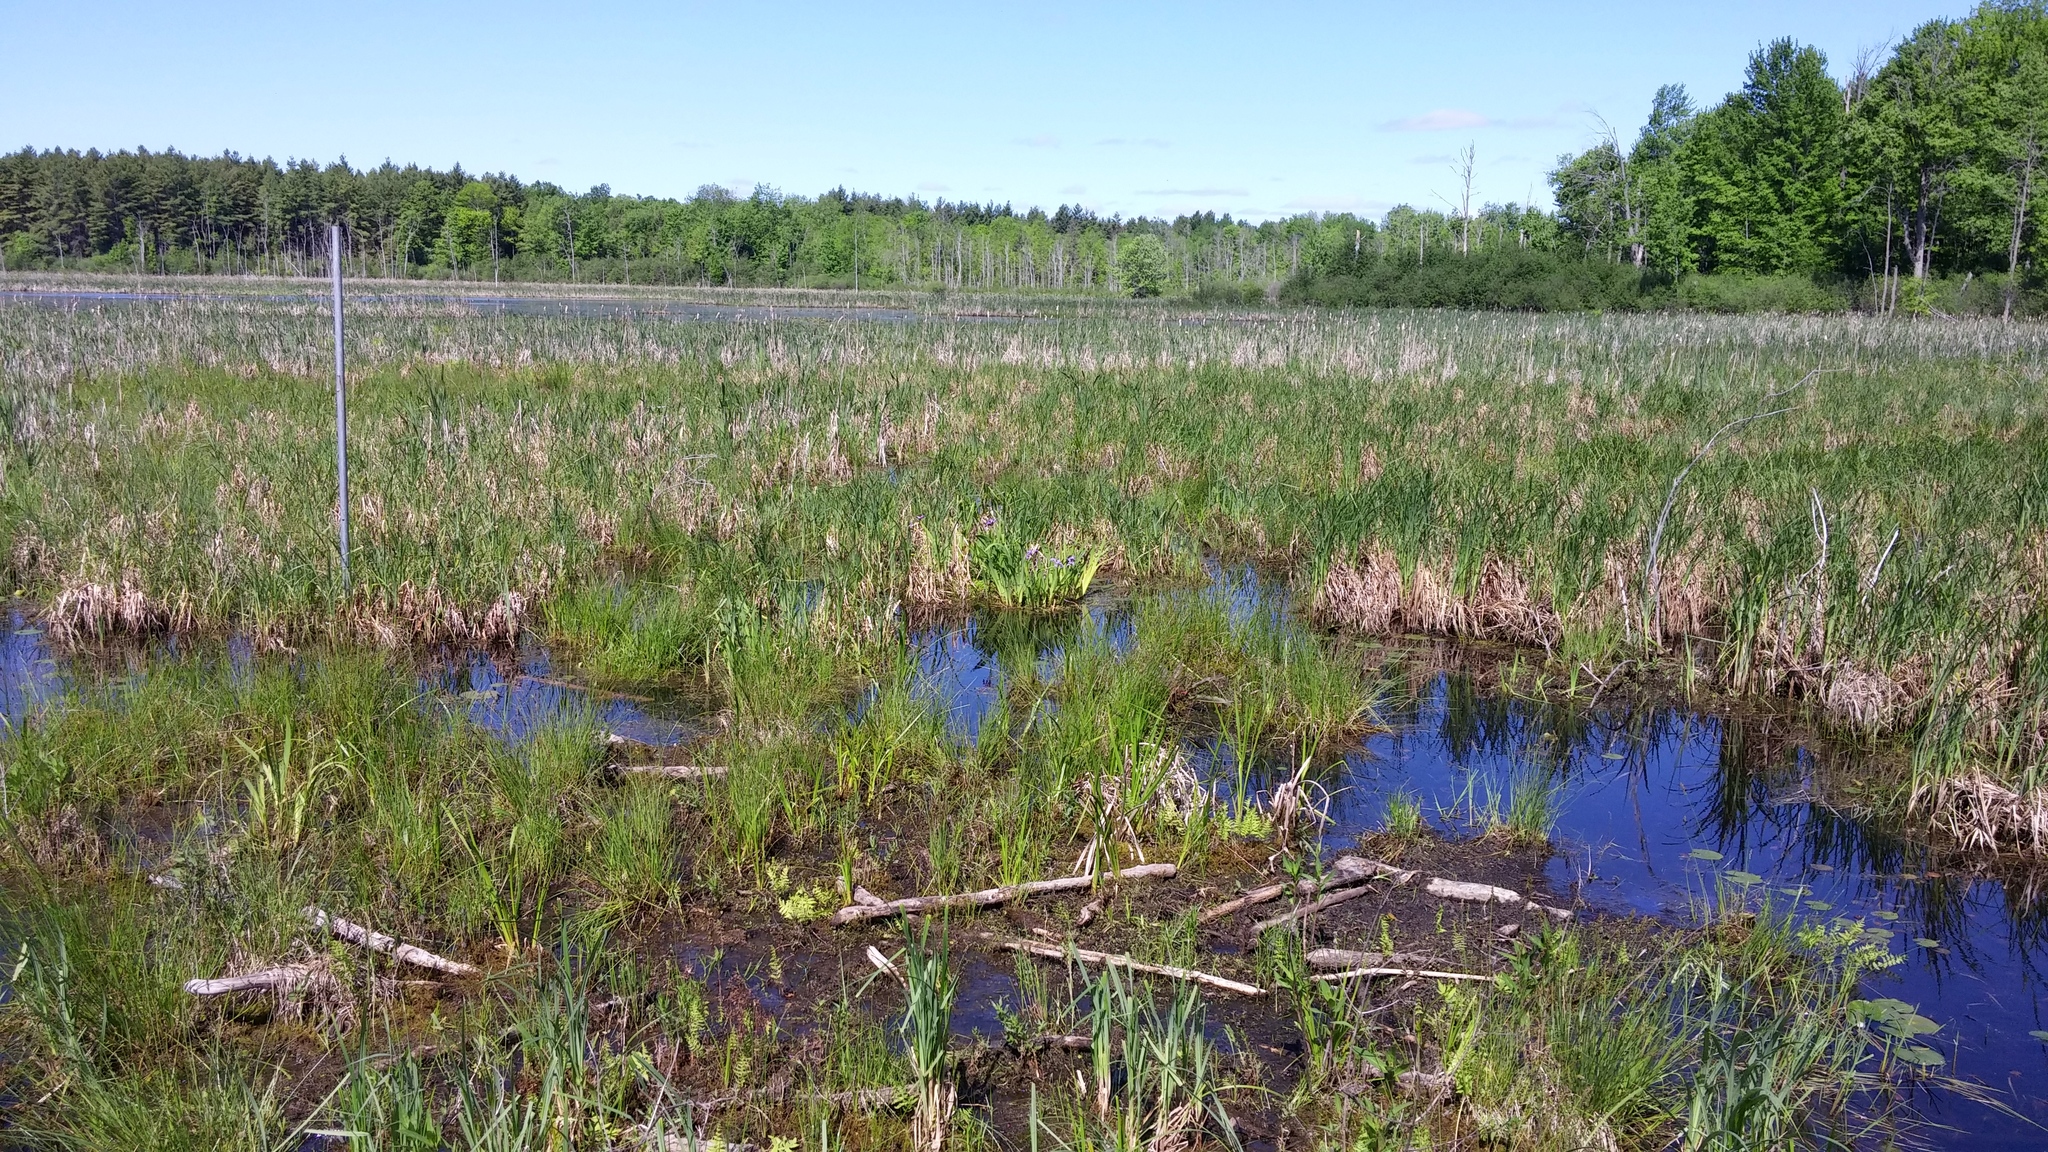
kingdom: Plantae
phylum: Tracheophyta
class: Liliopsida
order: Asparagales
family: Iridaceae
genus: Iris
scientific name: Iris versicolor
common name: Purple iris
